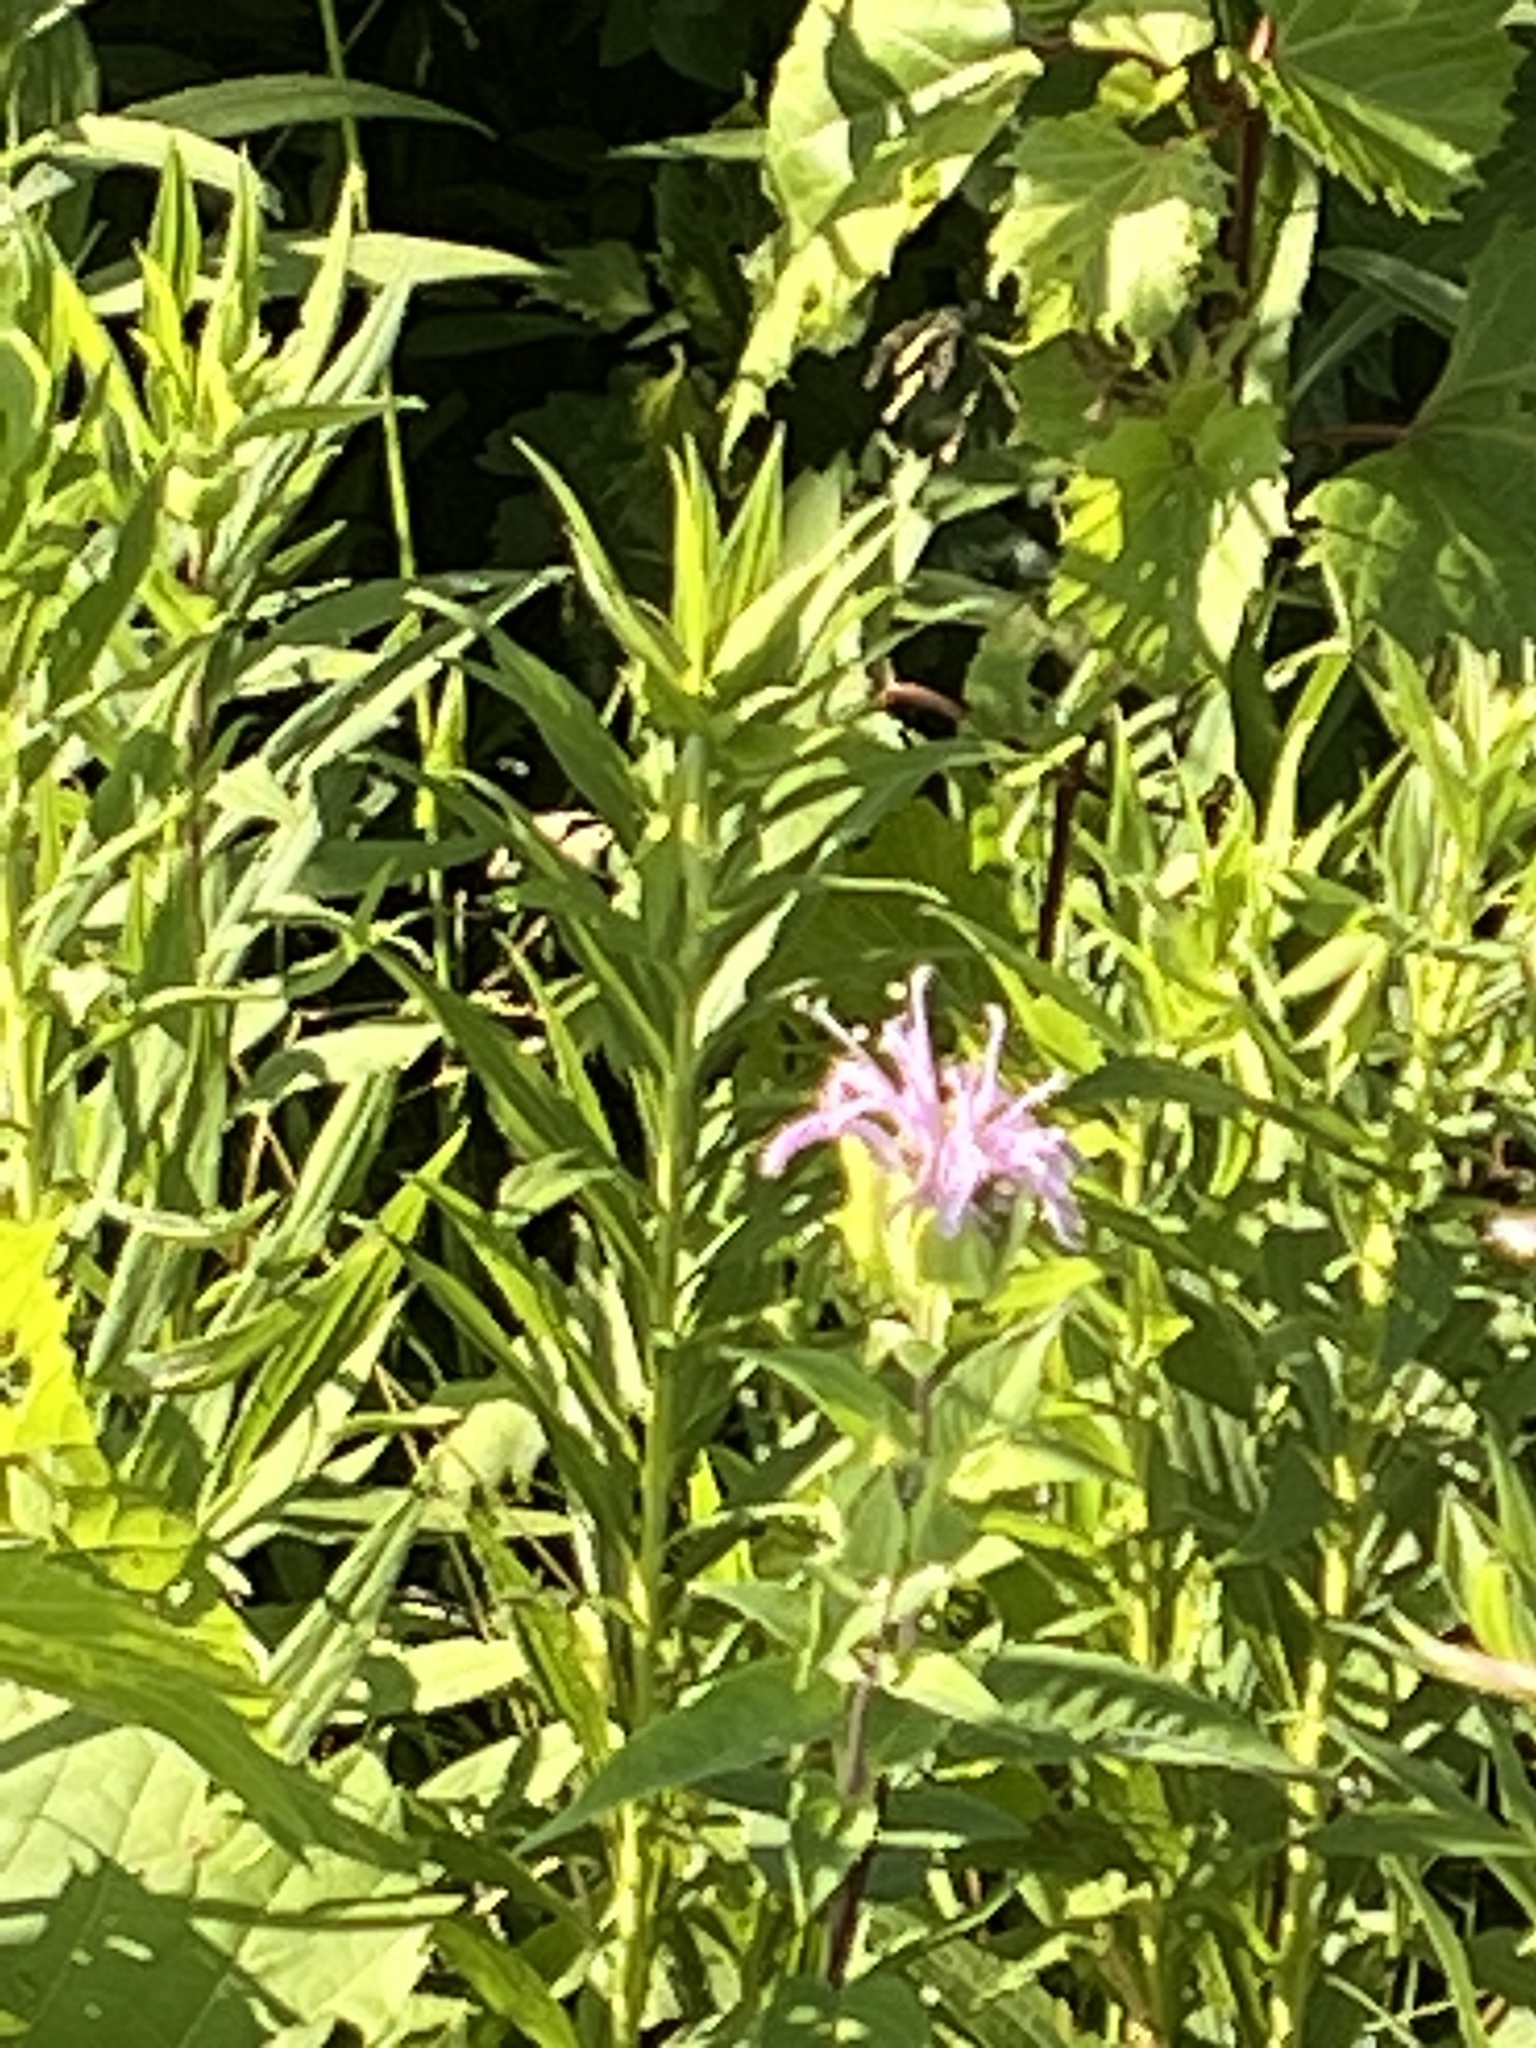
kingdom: Plantae
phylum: Tracheophyta
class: Magnoliopsida
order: Lamiales
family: Lamiaceae
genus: Monarda
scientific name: Monarda fistulosa
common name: Purple beebalm
